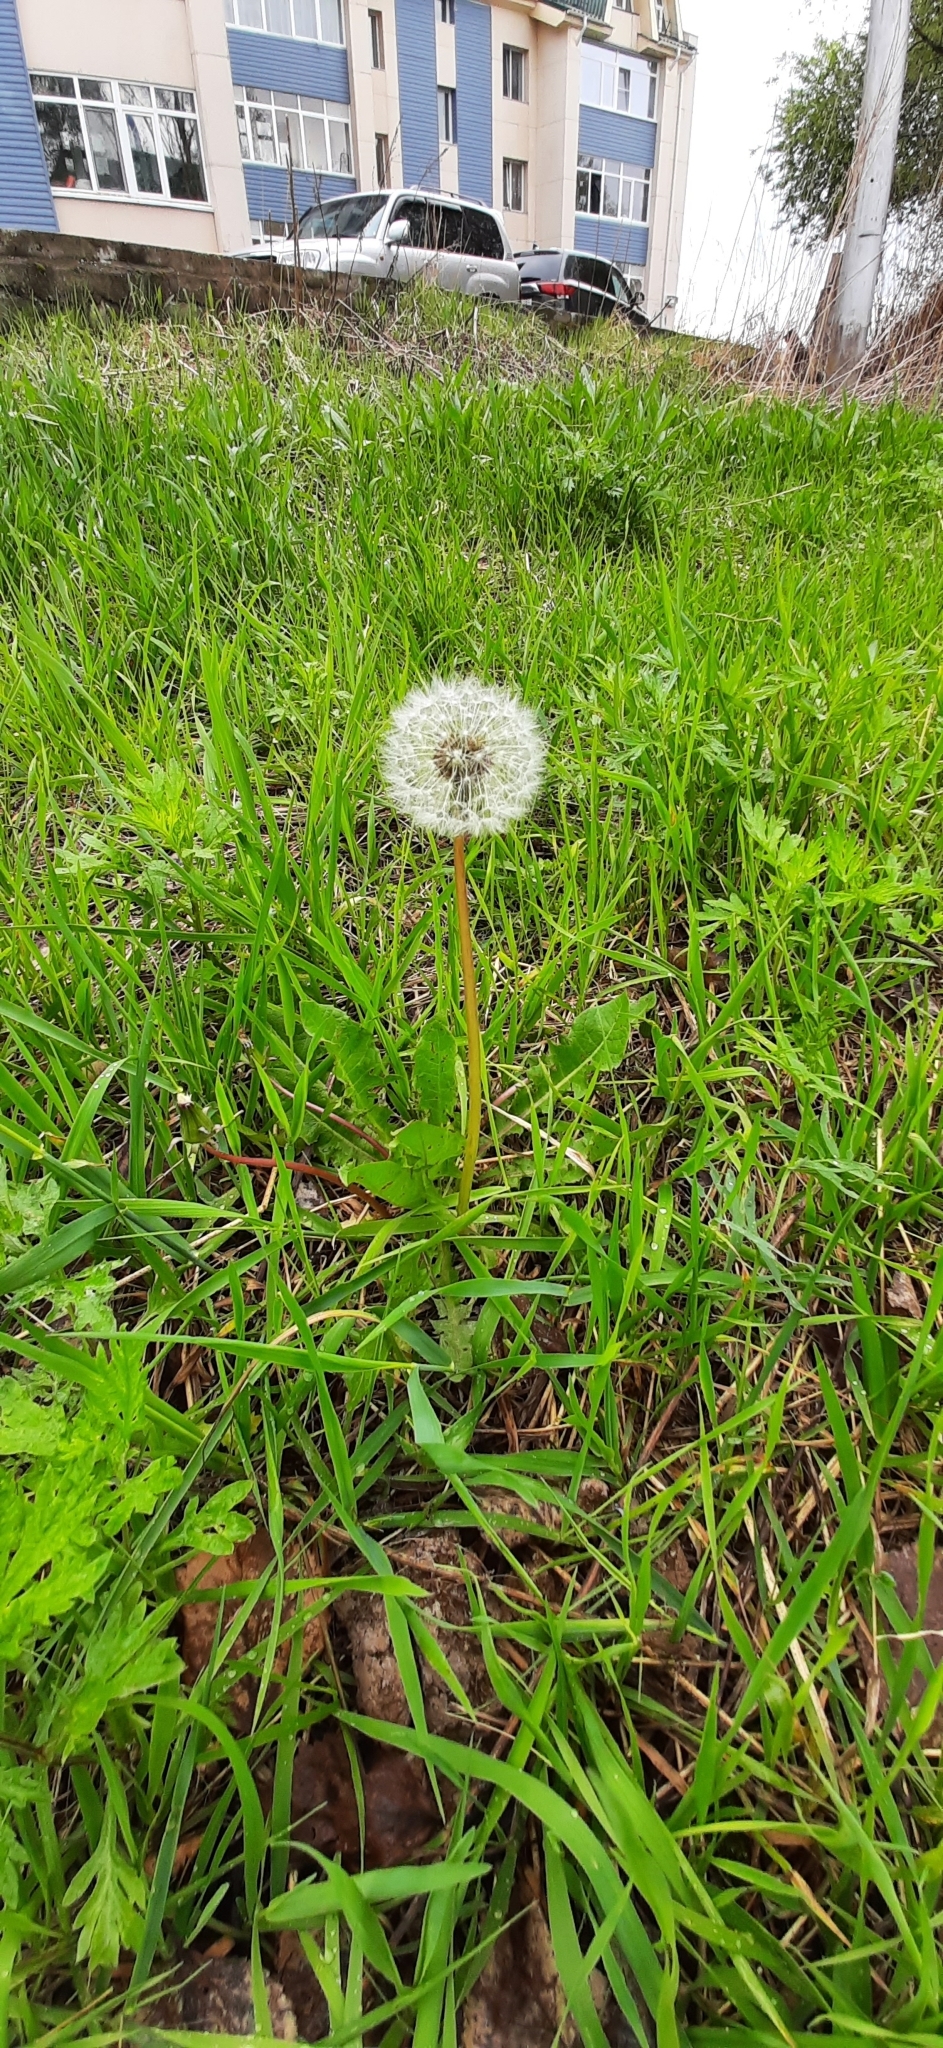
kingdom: Plantae
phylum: Tracheophyta
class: Magnoliopsida
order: Asterales
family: Asteraceae
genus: Taraxacum
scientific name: Taraxacum officinale
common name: Common dandelion
